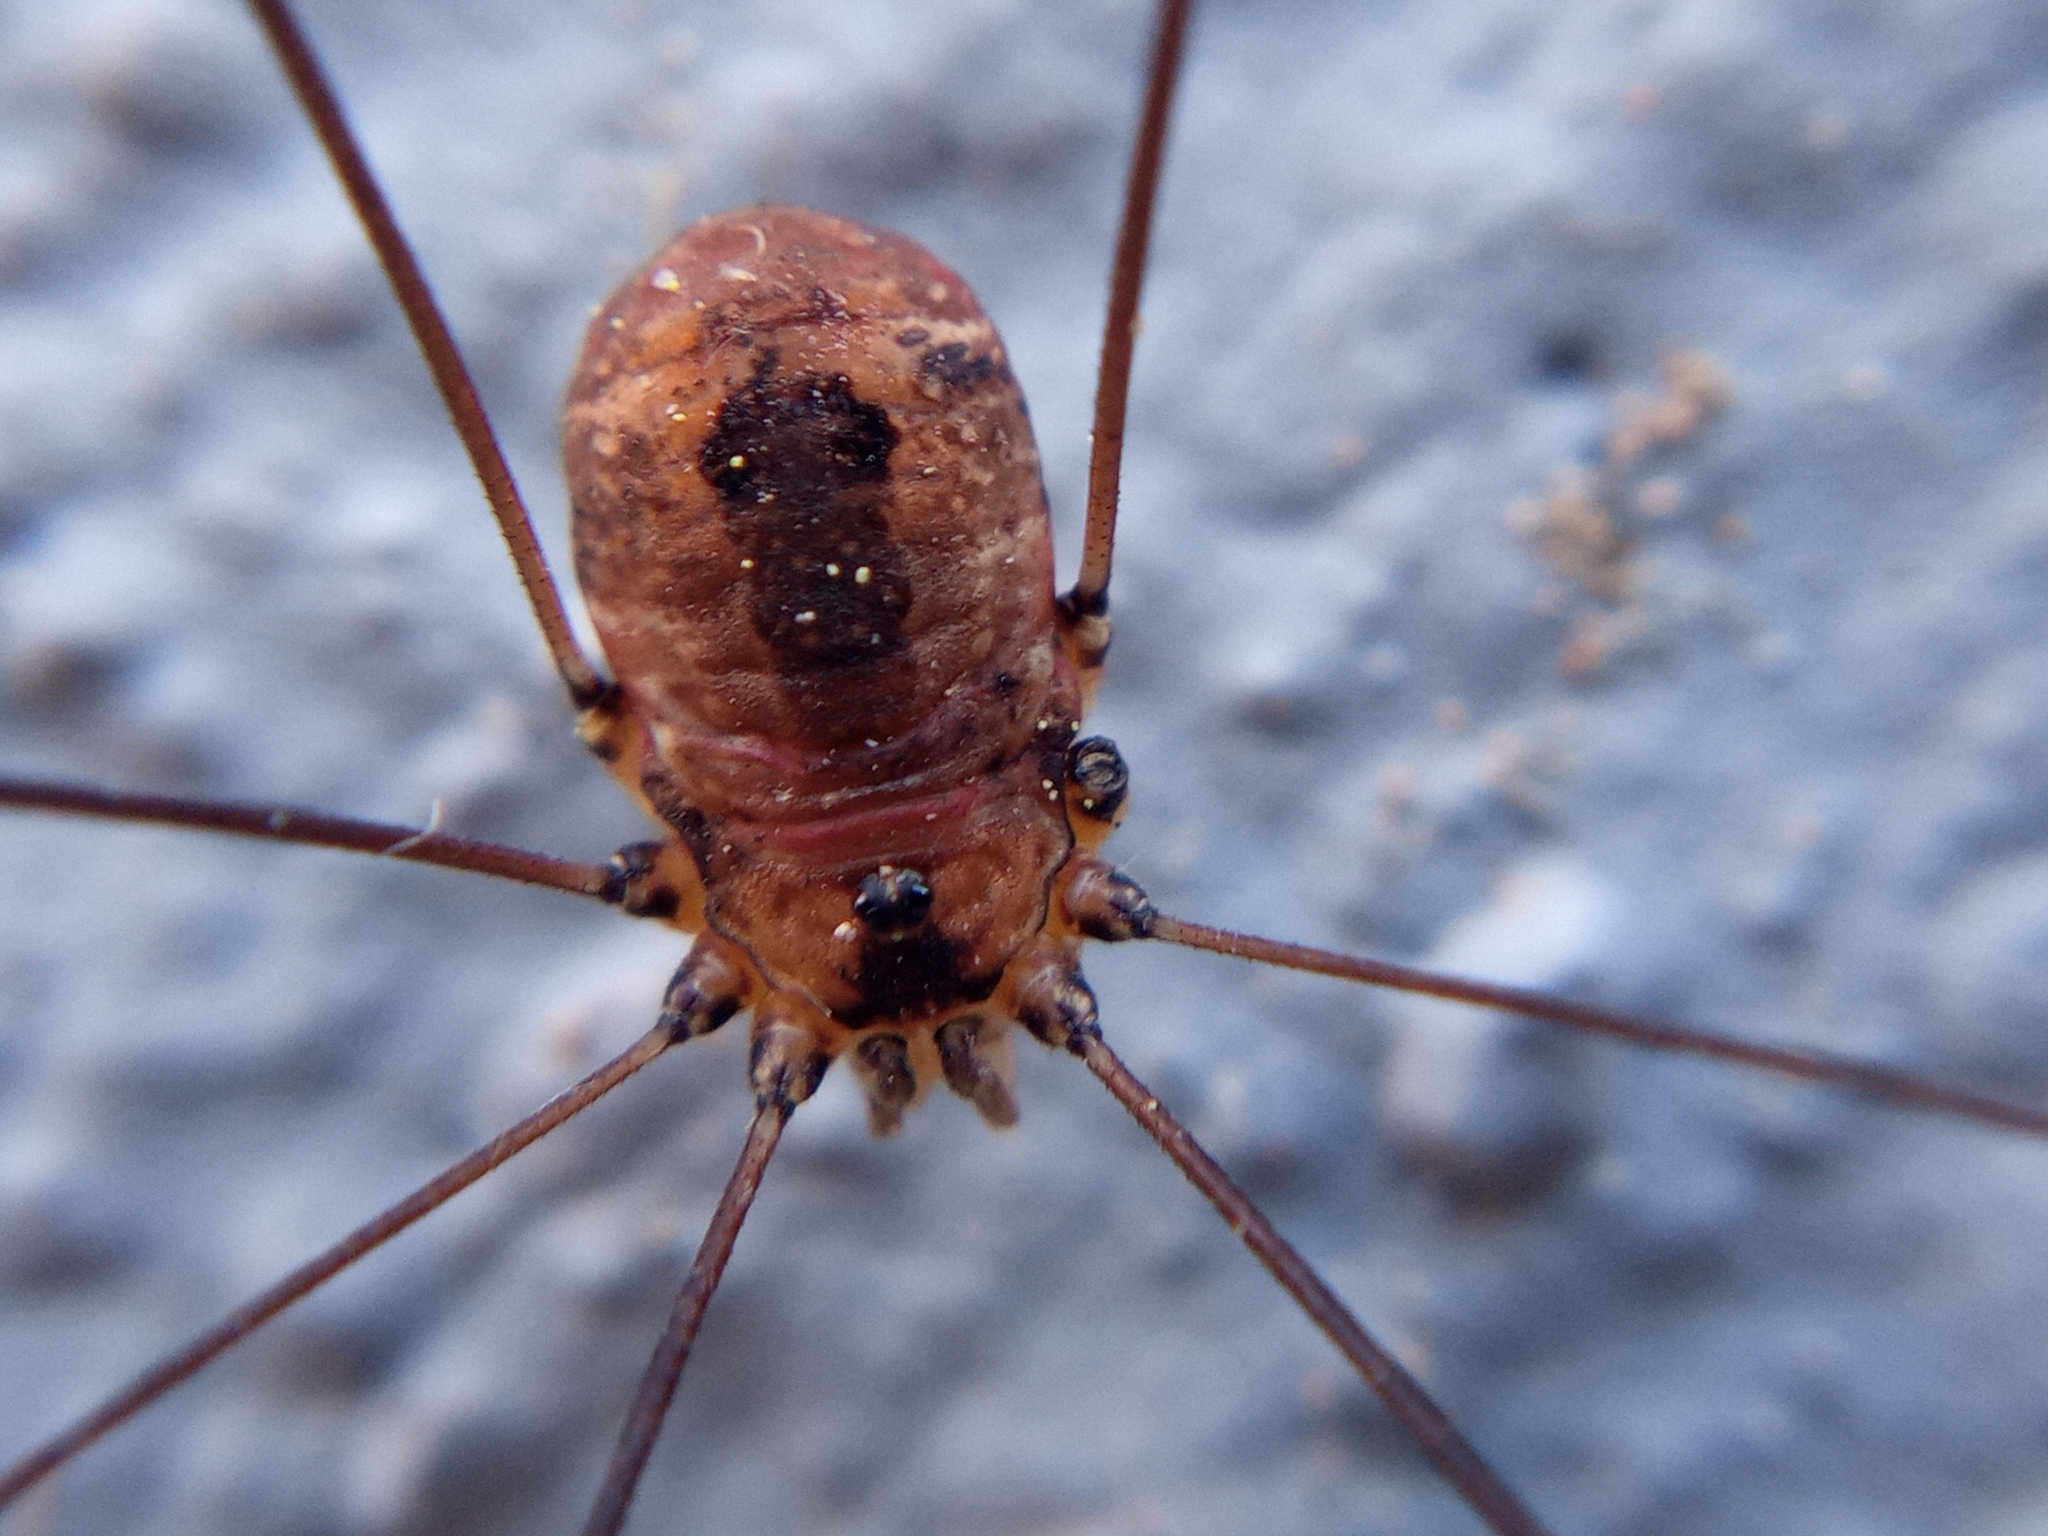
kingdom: Animalia
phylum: Arthropoda
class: Arachnida
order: Opiliones
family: Sclerosomatidae
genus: Leiobunum
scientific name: Leiobunum rotundum
